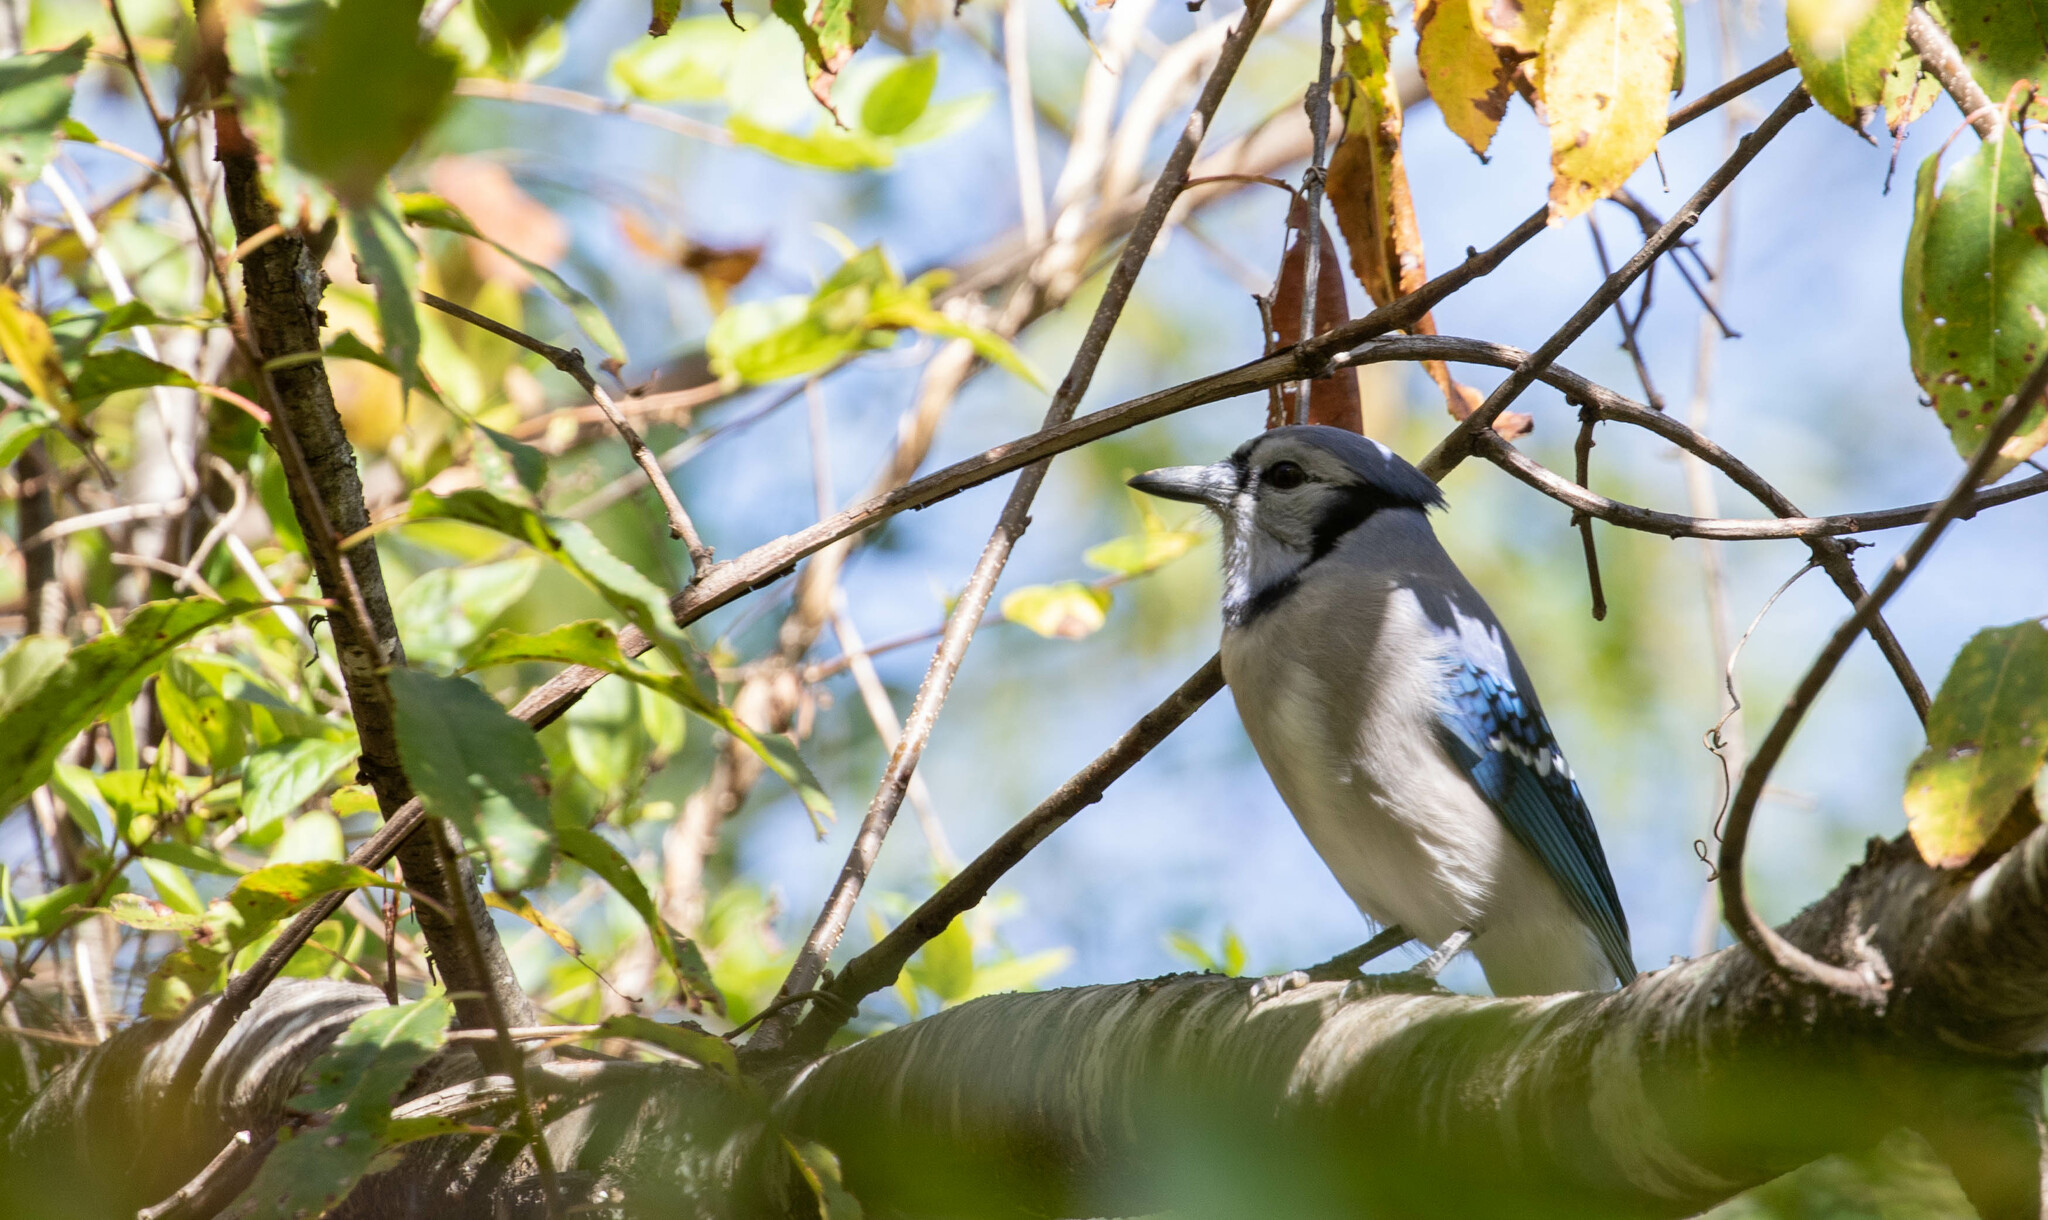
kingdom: Animalia
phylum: Chordata
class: Aves
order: Passeriformes
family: Corvidae
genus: Cyanocitta
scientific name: Cyanocitta cristata
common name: Blue jay
